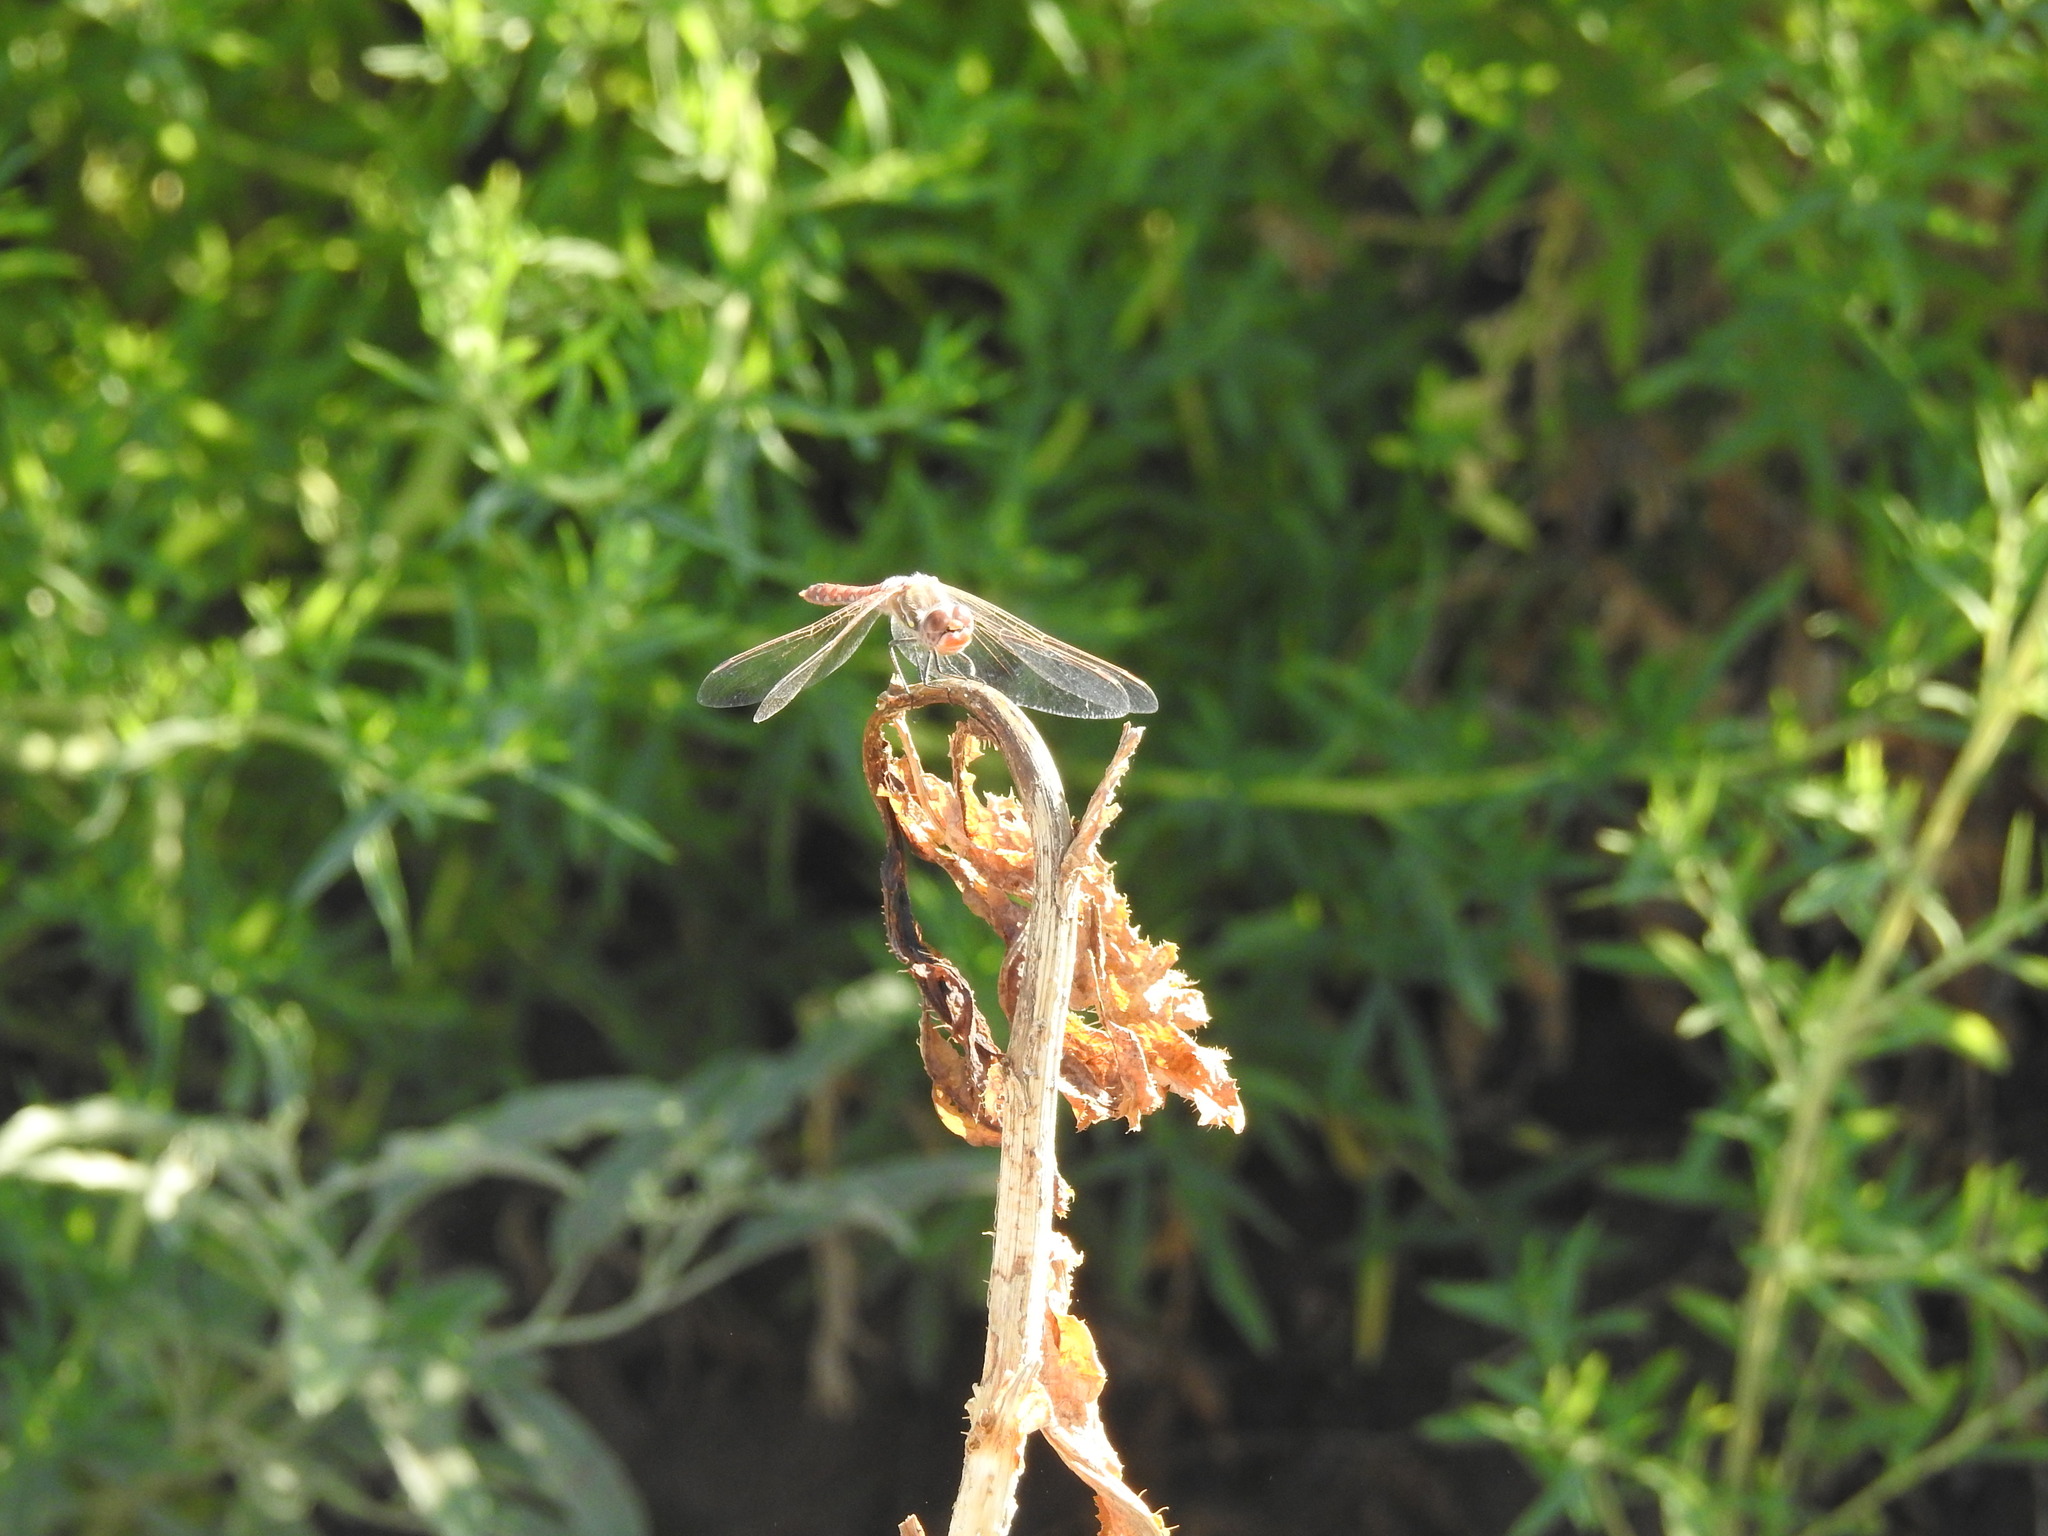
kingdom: Animalia
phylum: Arthropoda
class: Insecta
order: Odonata
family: Libellulidae
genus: Sympetrum
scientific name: Sympetrum corruptum
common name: Variegated meadowhawk
